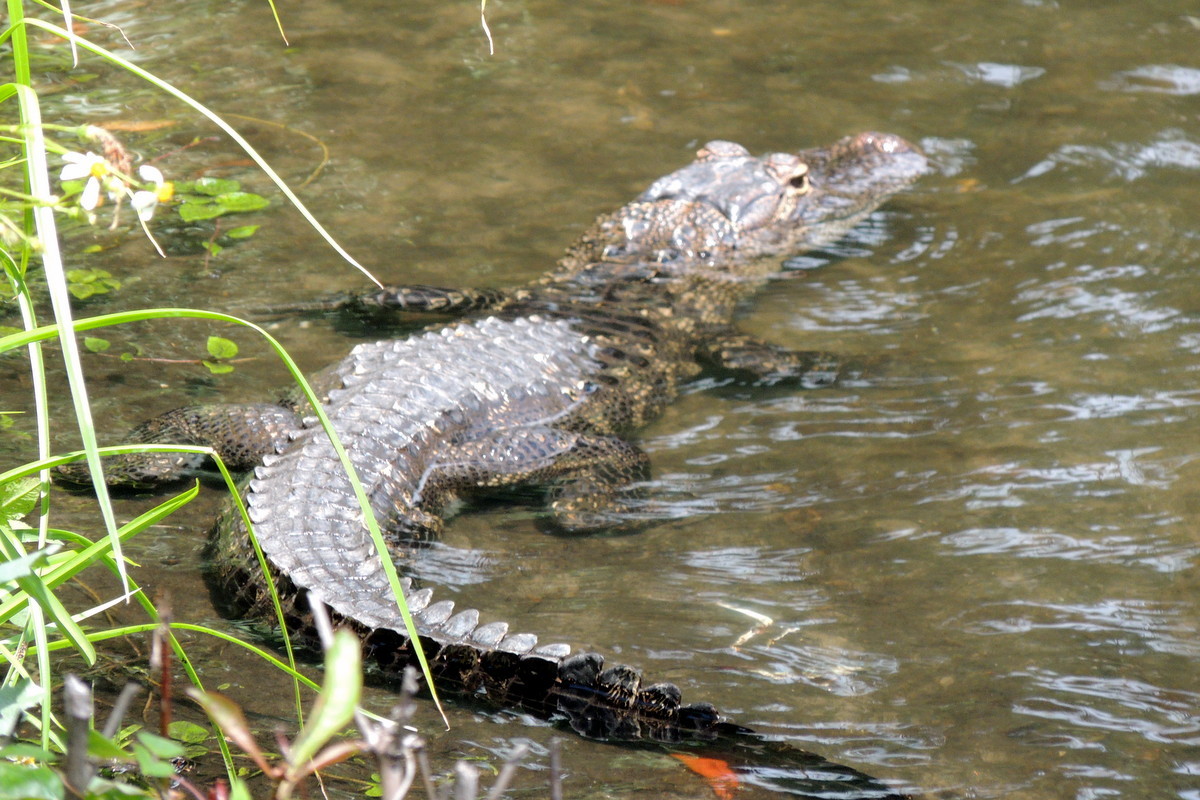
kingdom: Animalia
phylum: Chordata
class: Crocodylia
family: Alligatoridae
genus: Alligator
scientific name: Alligator mississippiensis
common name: American alligator
